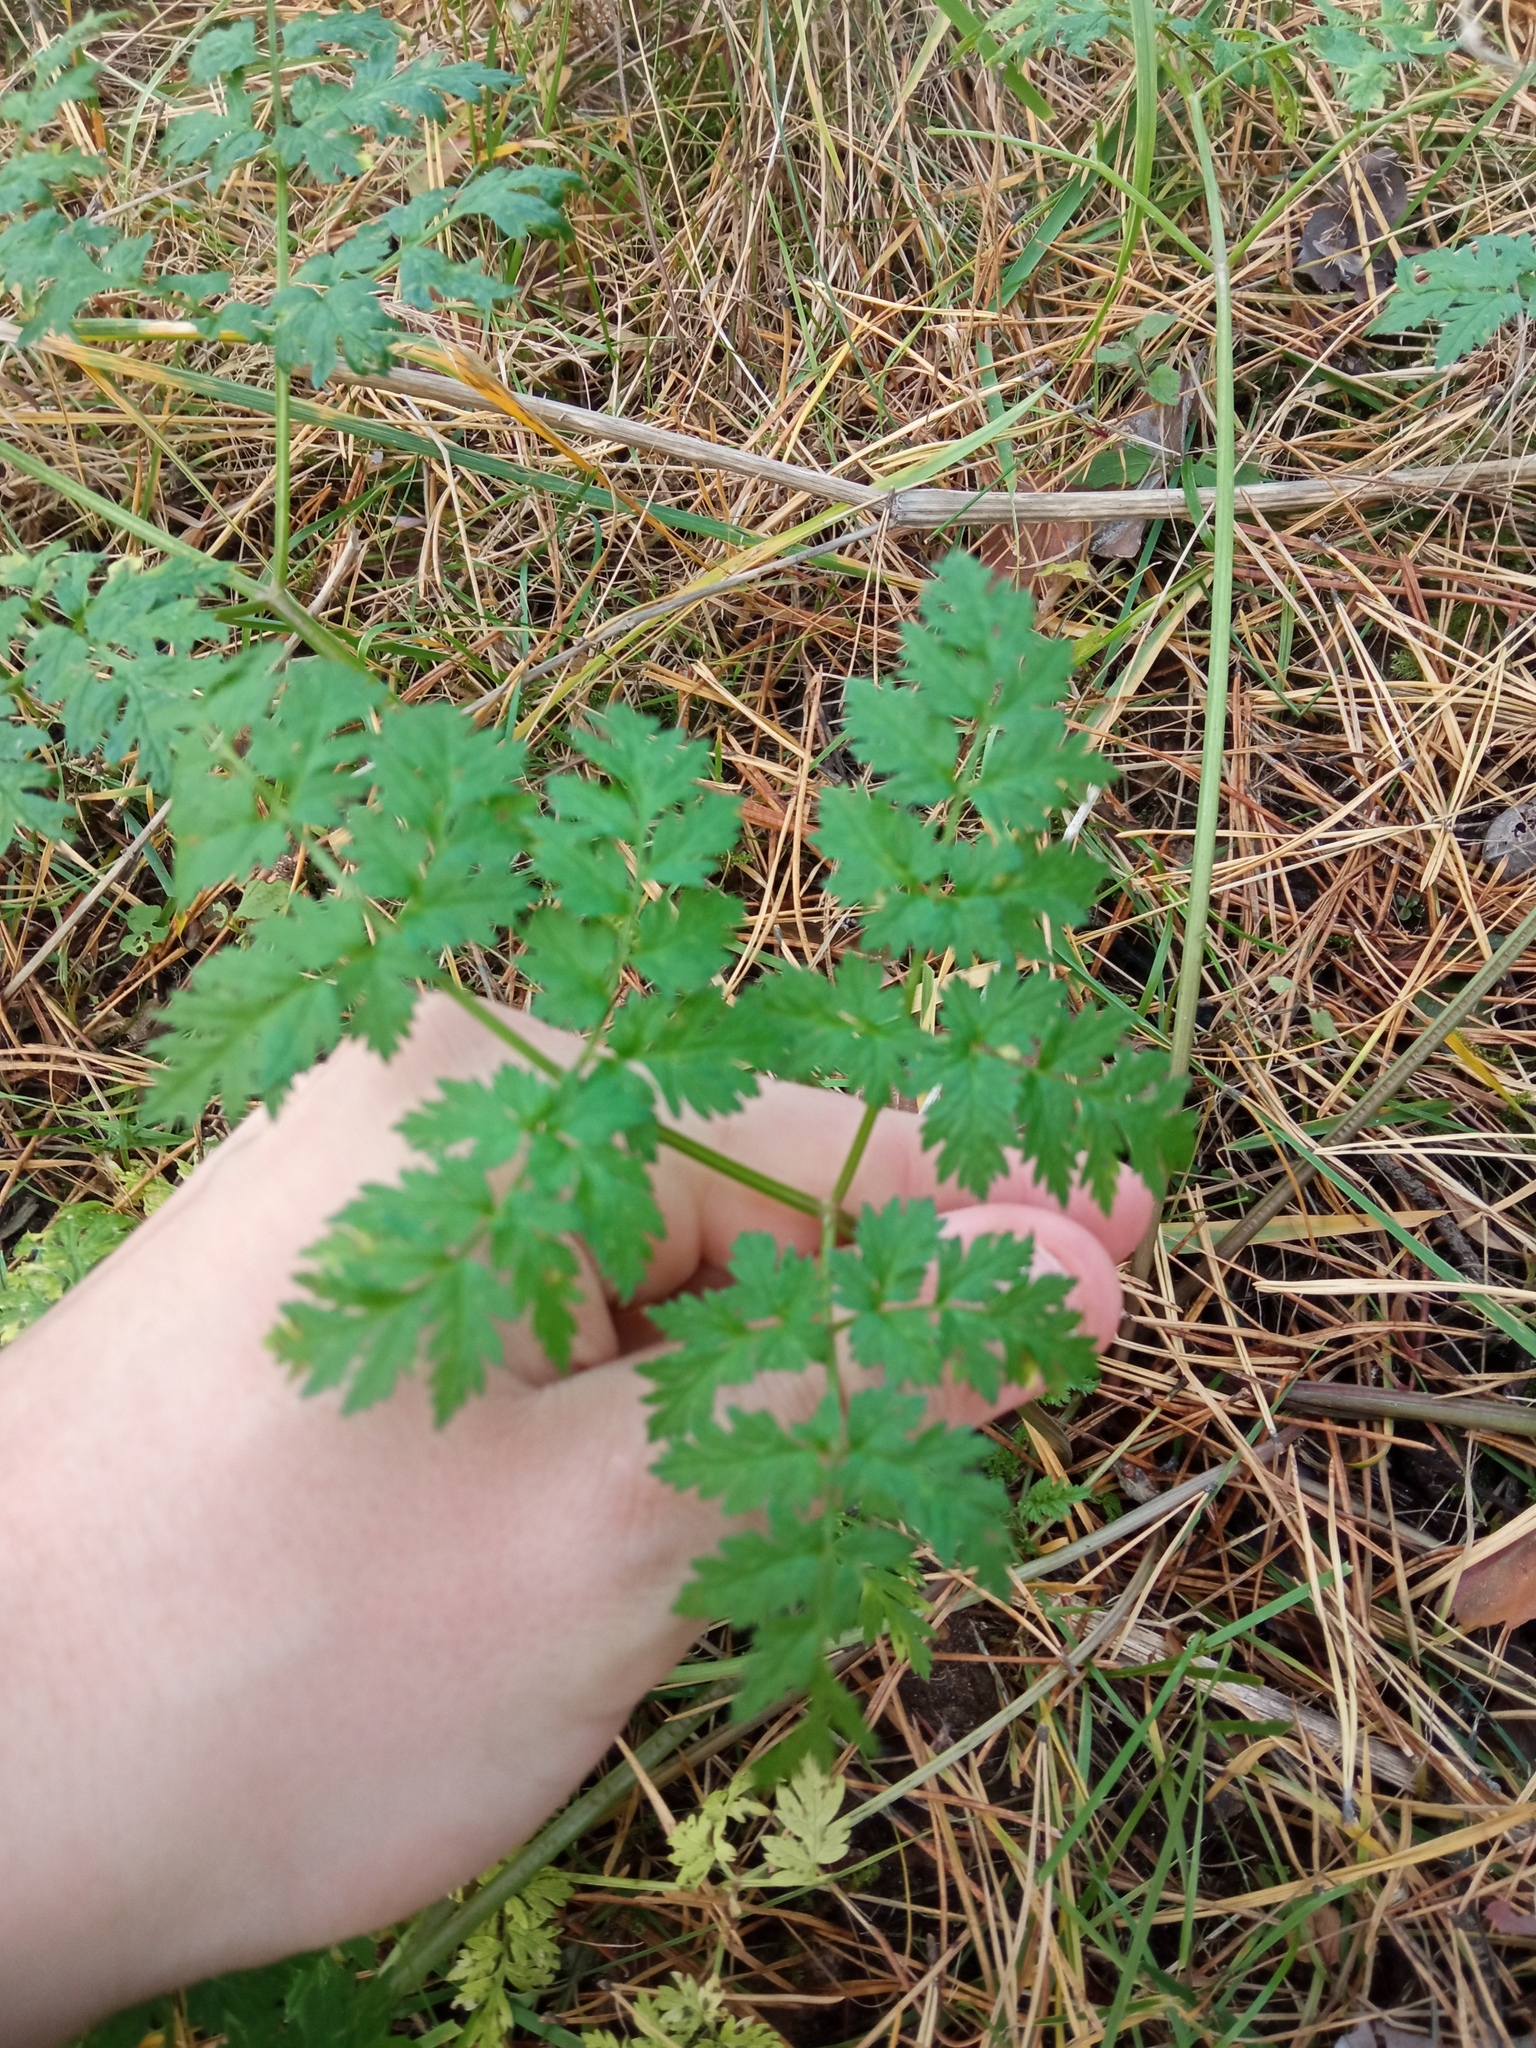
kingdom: Plantae
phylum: Tracheophyta
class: Magnoliopsida
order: Apiales
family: Apiaceae
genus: Anthriscus
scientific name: Anthriscus sylvestris
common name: Cow parsley
